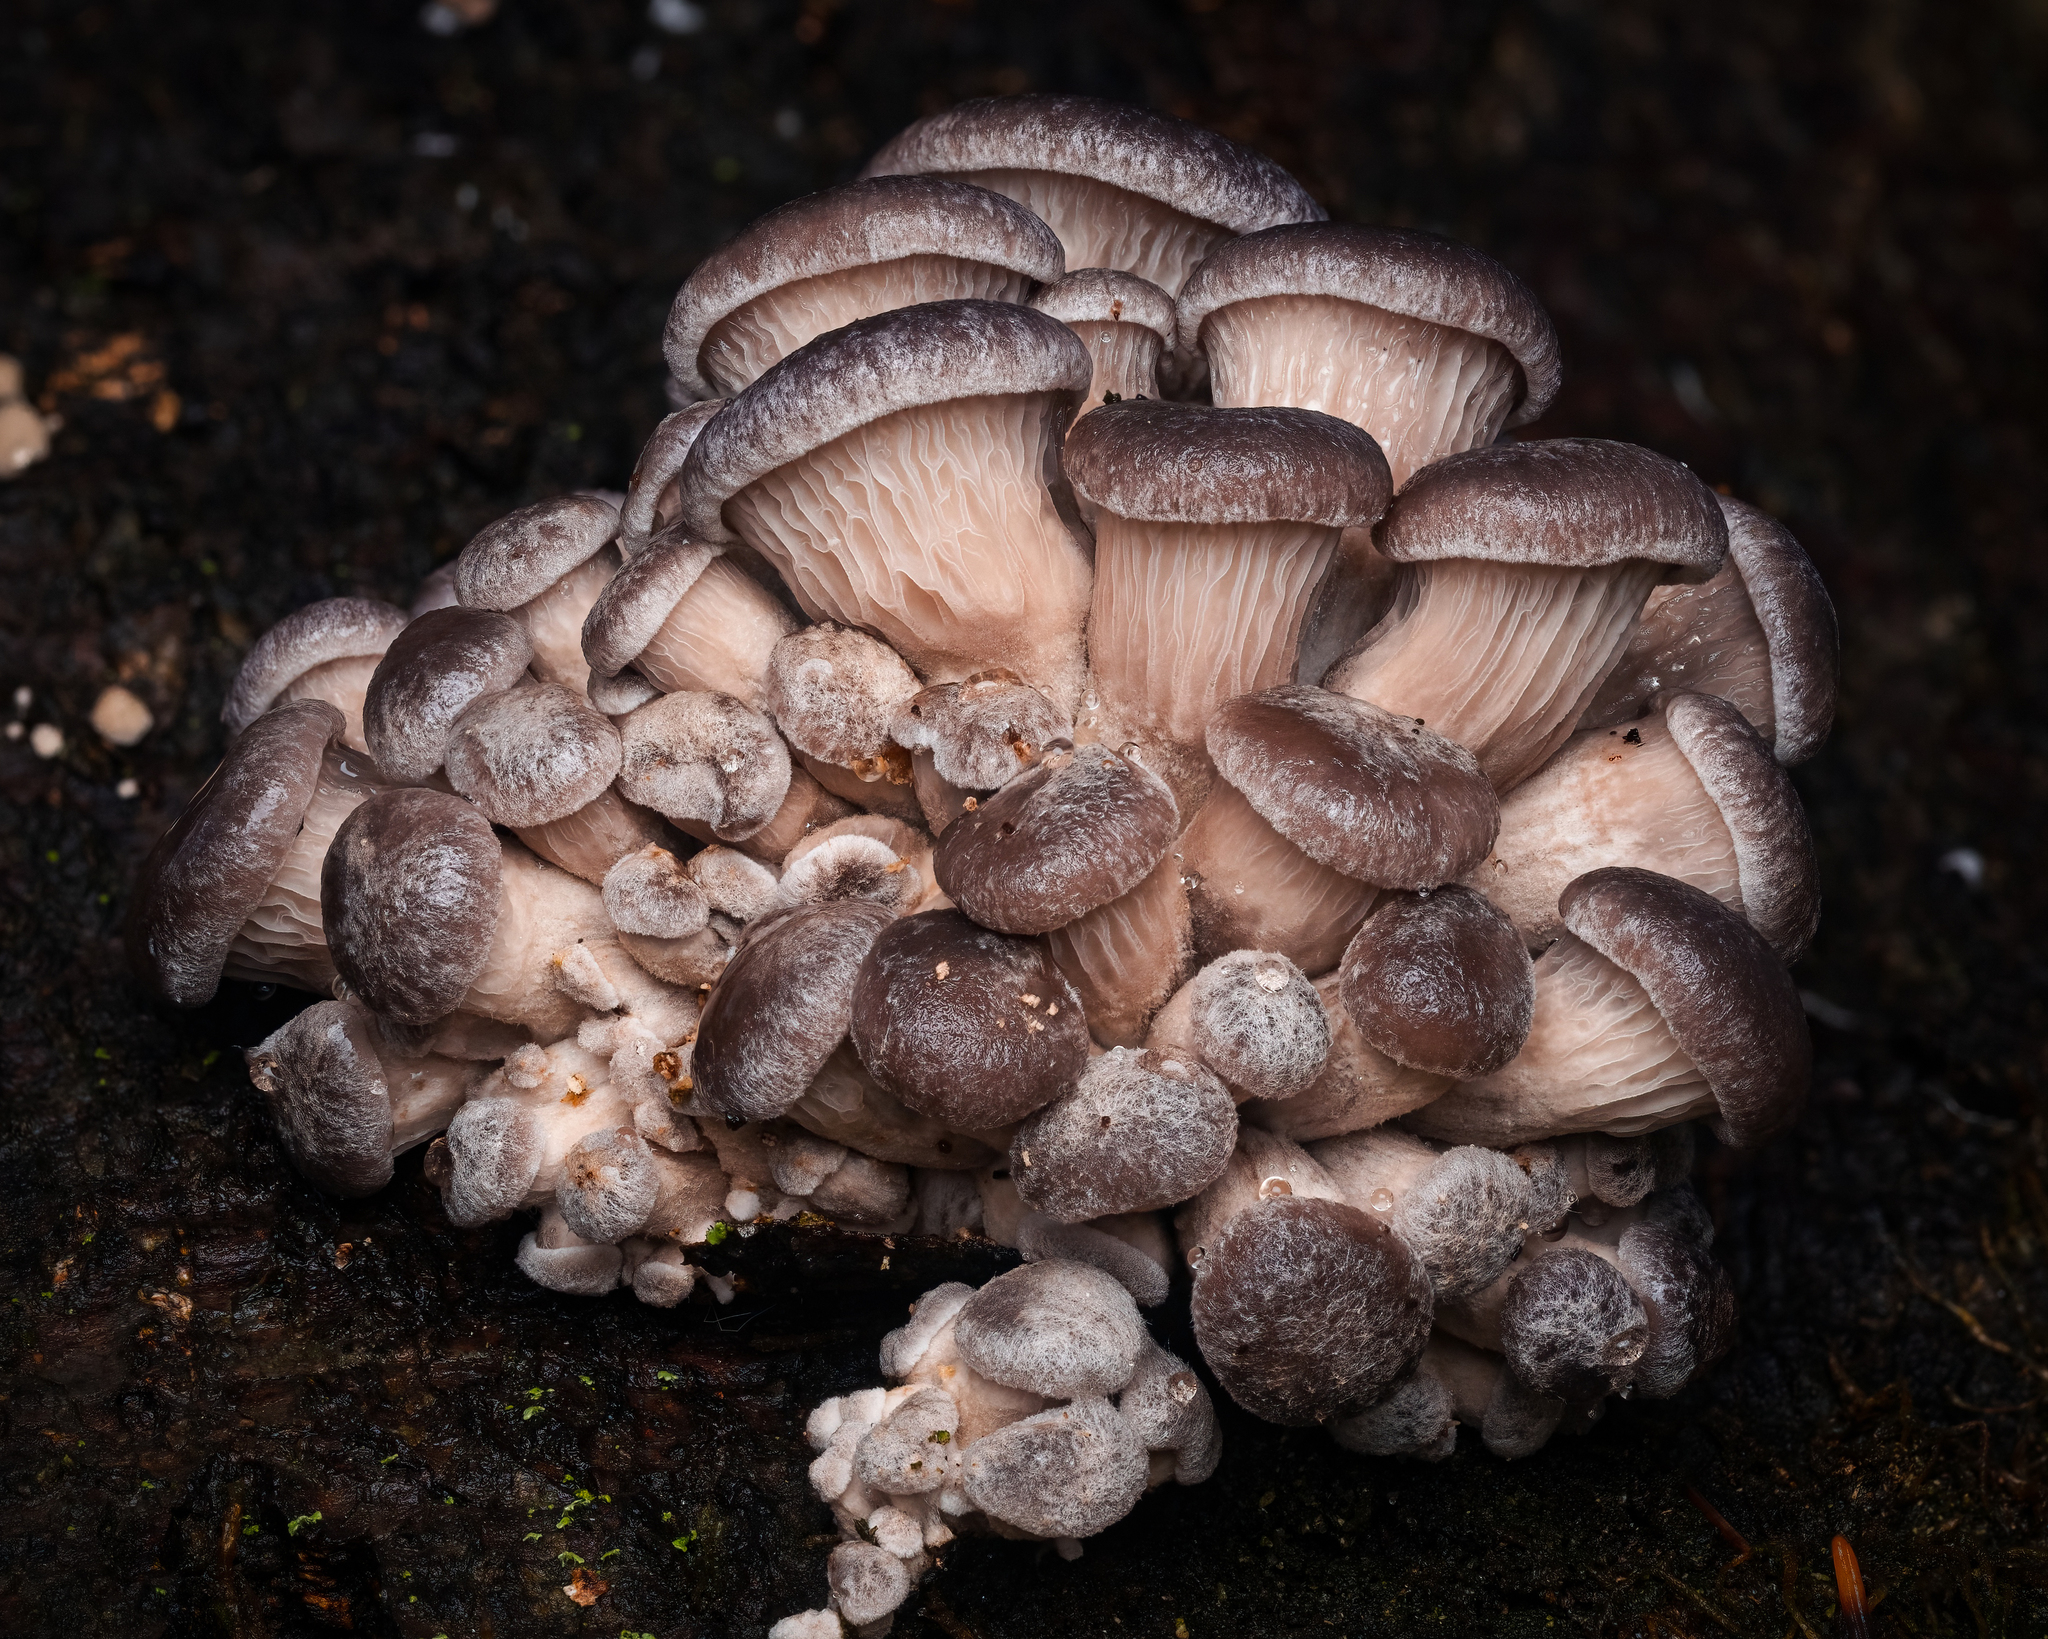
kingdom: Fungi
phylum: Basidiomycota
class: Agaricomycetes
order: Agaricales
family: Pleurotaceae
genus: Pleurotus
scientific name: Pleurotus ostreatus
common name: Oyster mushroom
